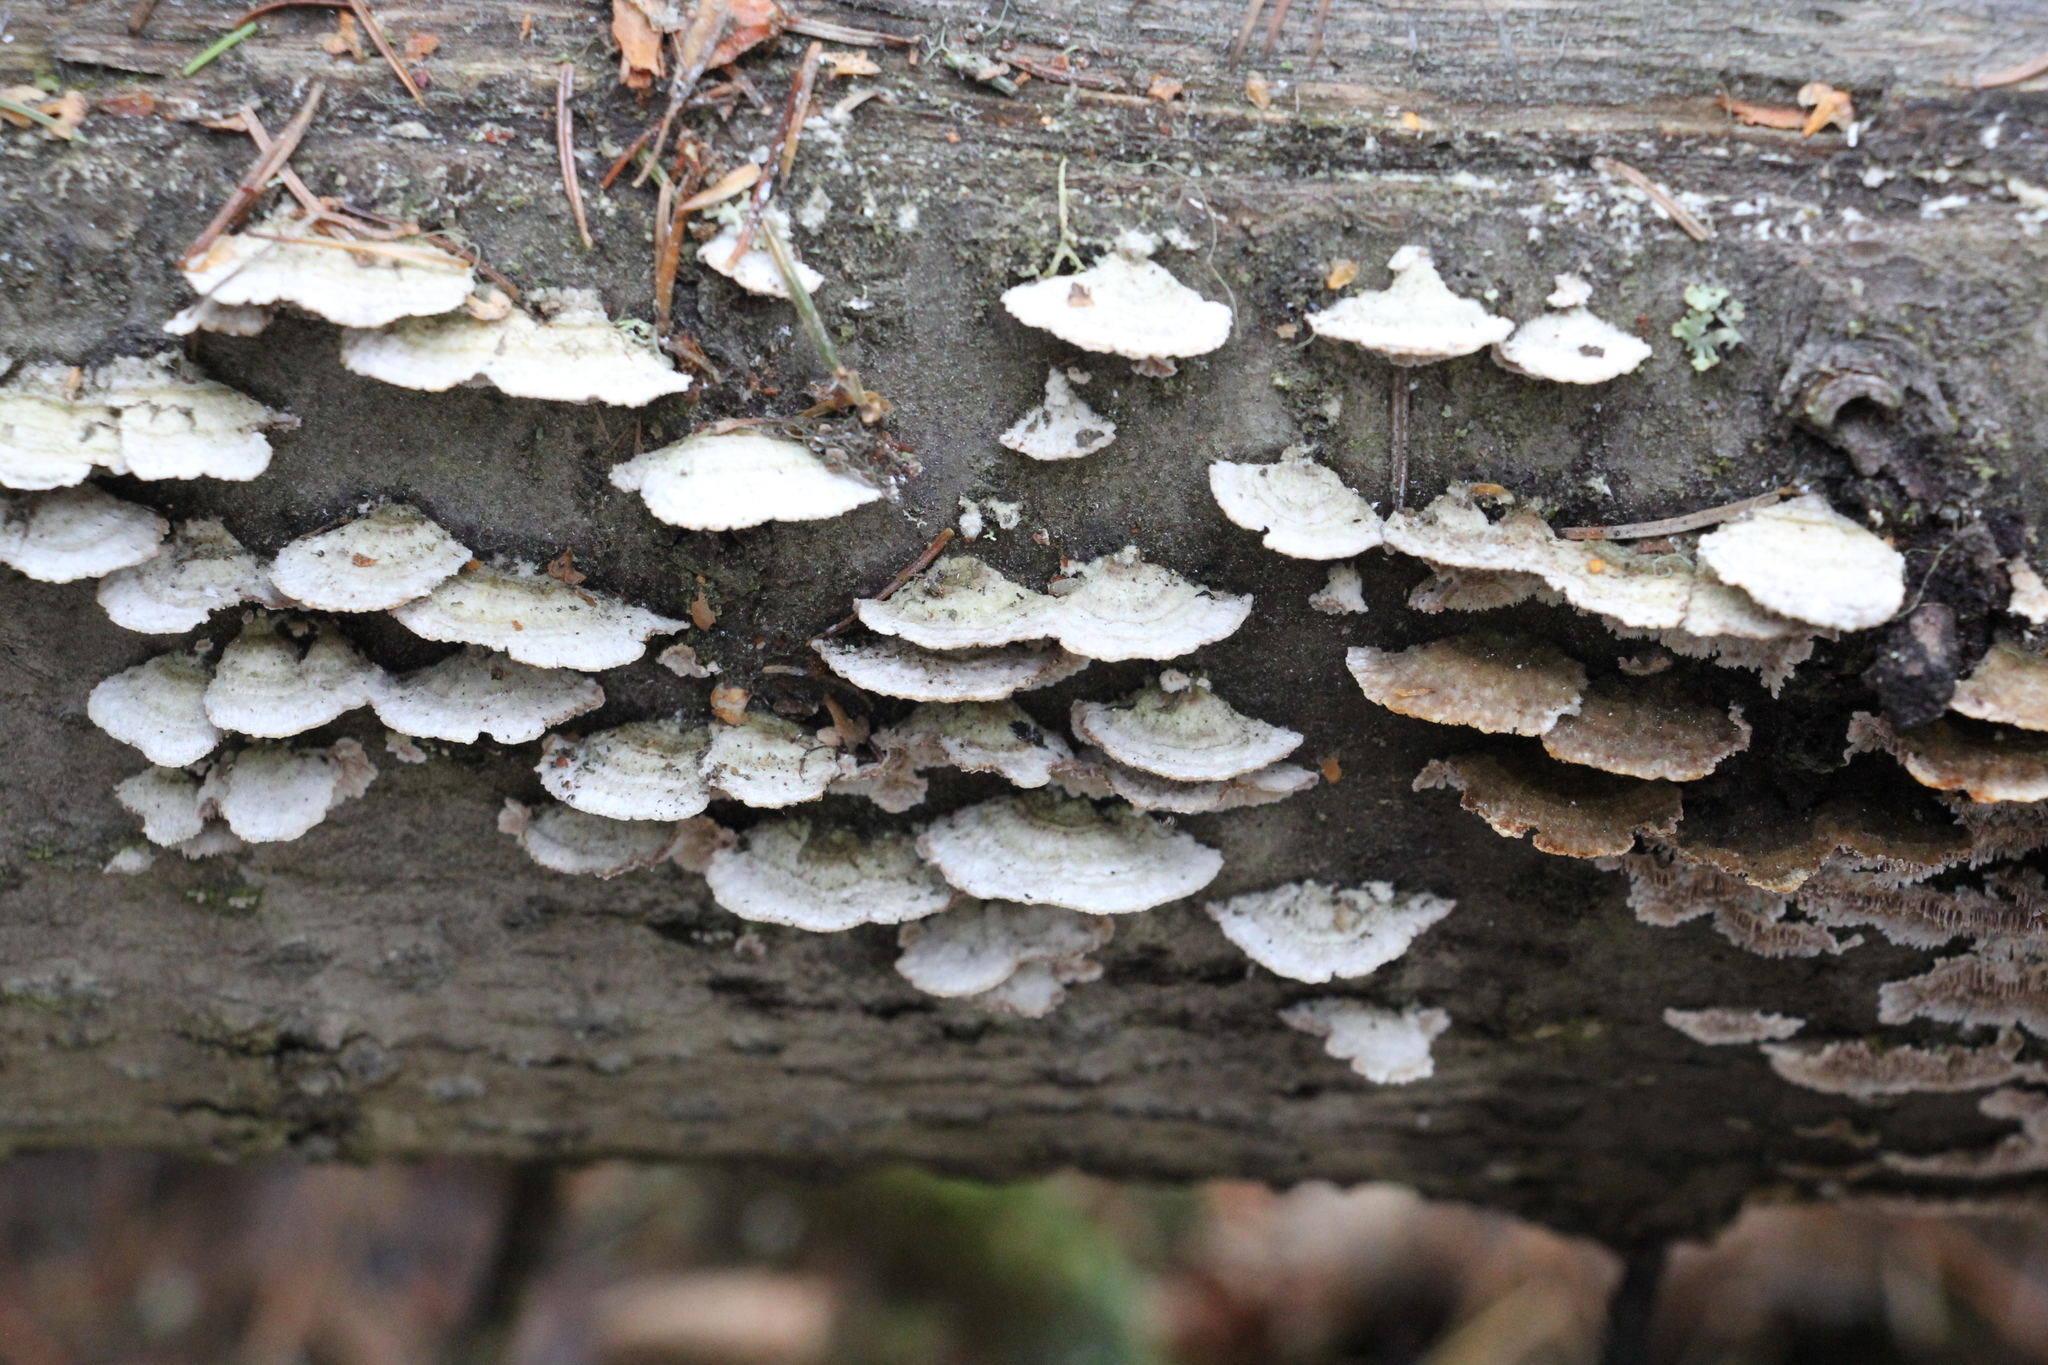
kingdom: Fungi
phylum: Basidiomycota
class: Agaricomycetes
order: Hymenochaetales
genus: Trichaptum
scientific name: Trichaptum fuscoviolaceum
